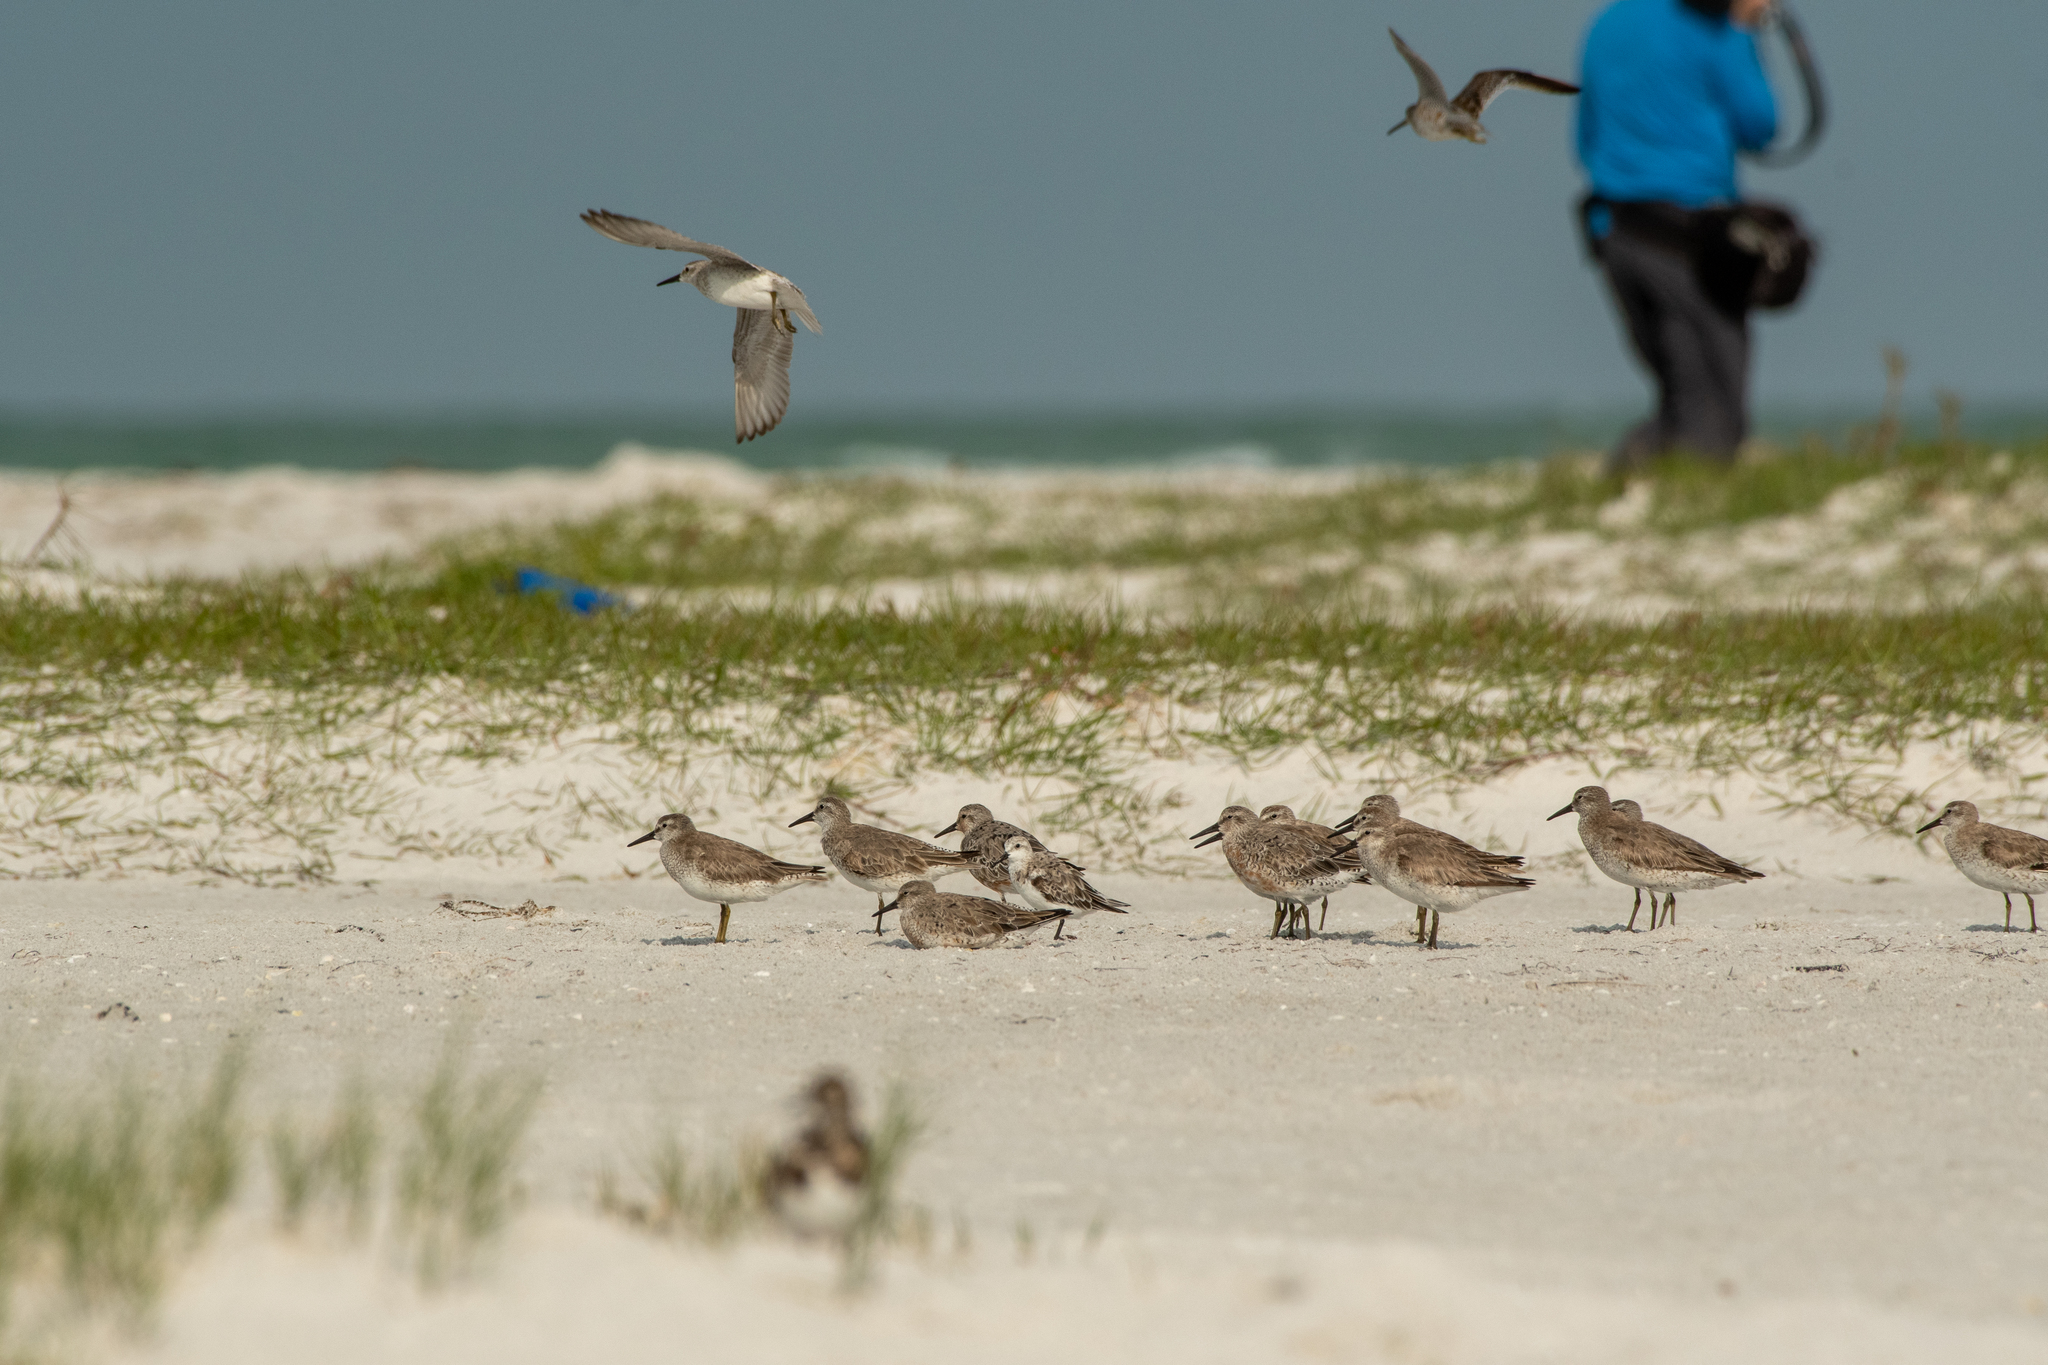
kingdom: Animalia
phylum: Chordata
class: Aves
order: Charadriiformes
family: Scolopacidae
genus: Calidris
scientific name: Calidris canutus
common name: Red knot
